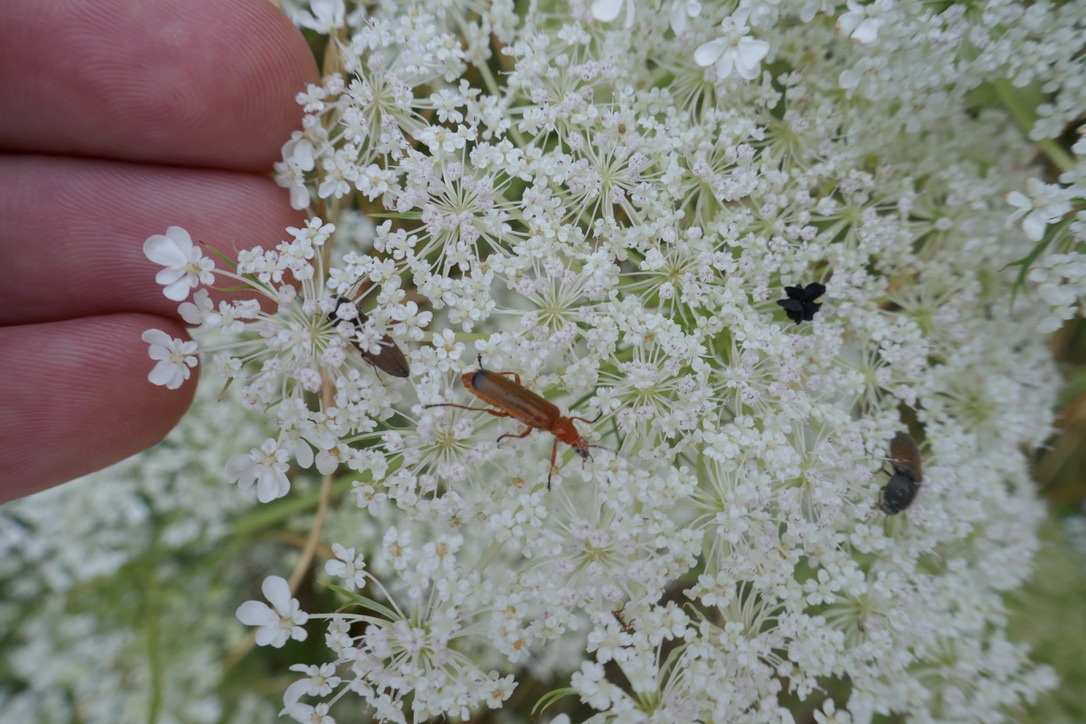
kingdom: Animalia
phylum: Arthropoda
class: Insecta
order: Coleoptera
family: Cantharidae
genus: Rhagonycha
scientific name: Rhagonycha fulva
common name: Common red soldier beetle
